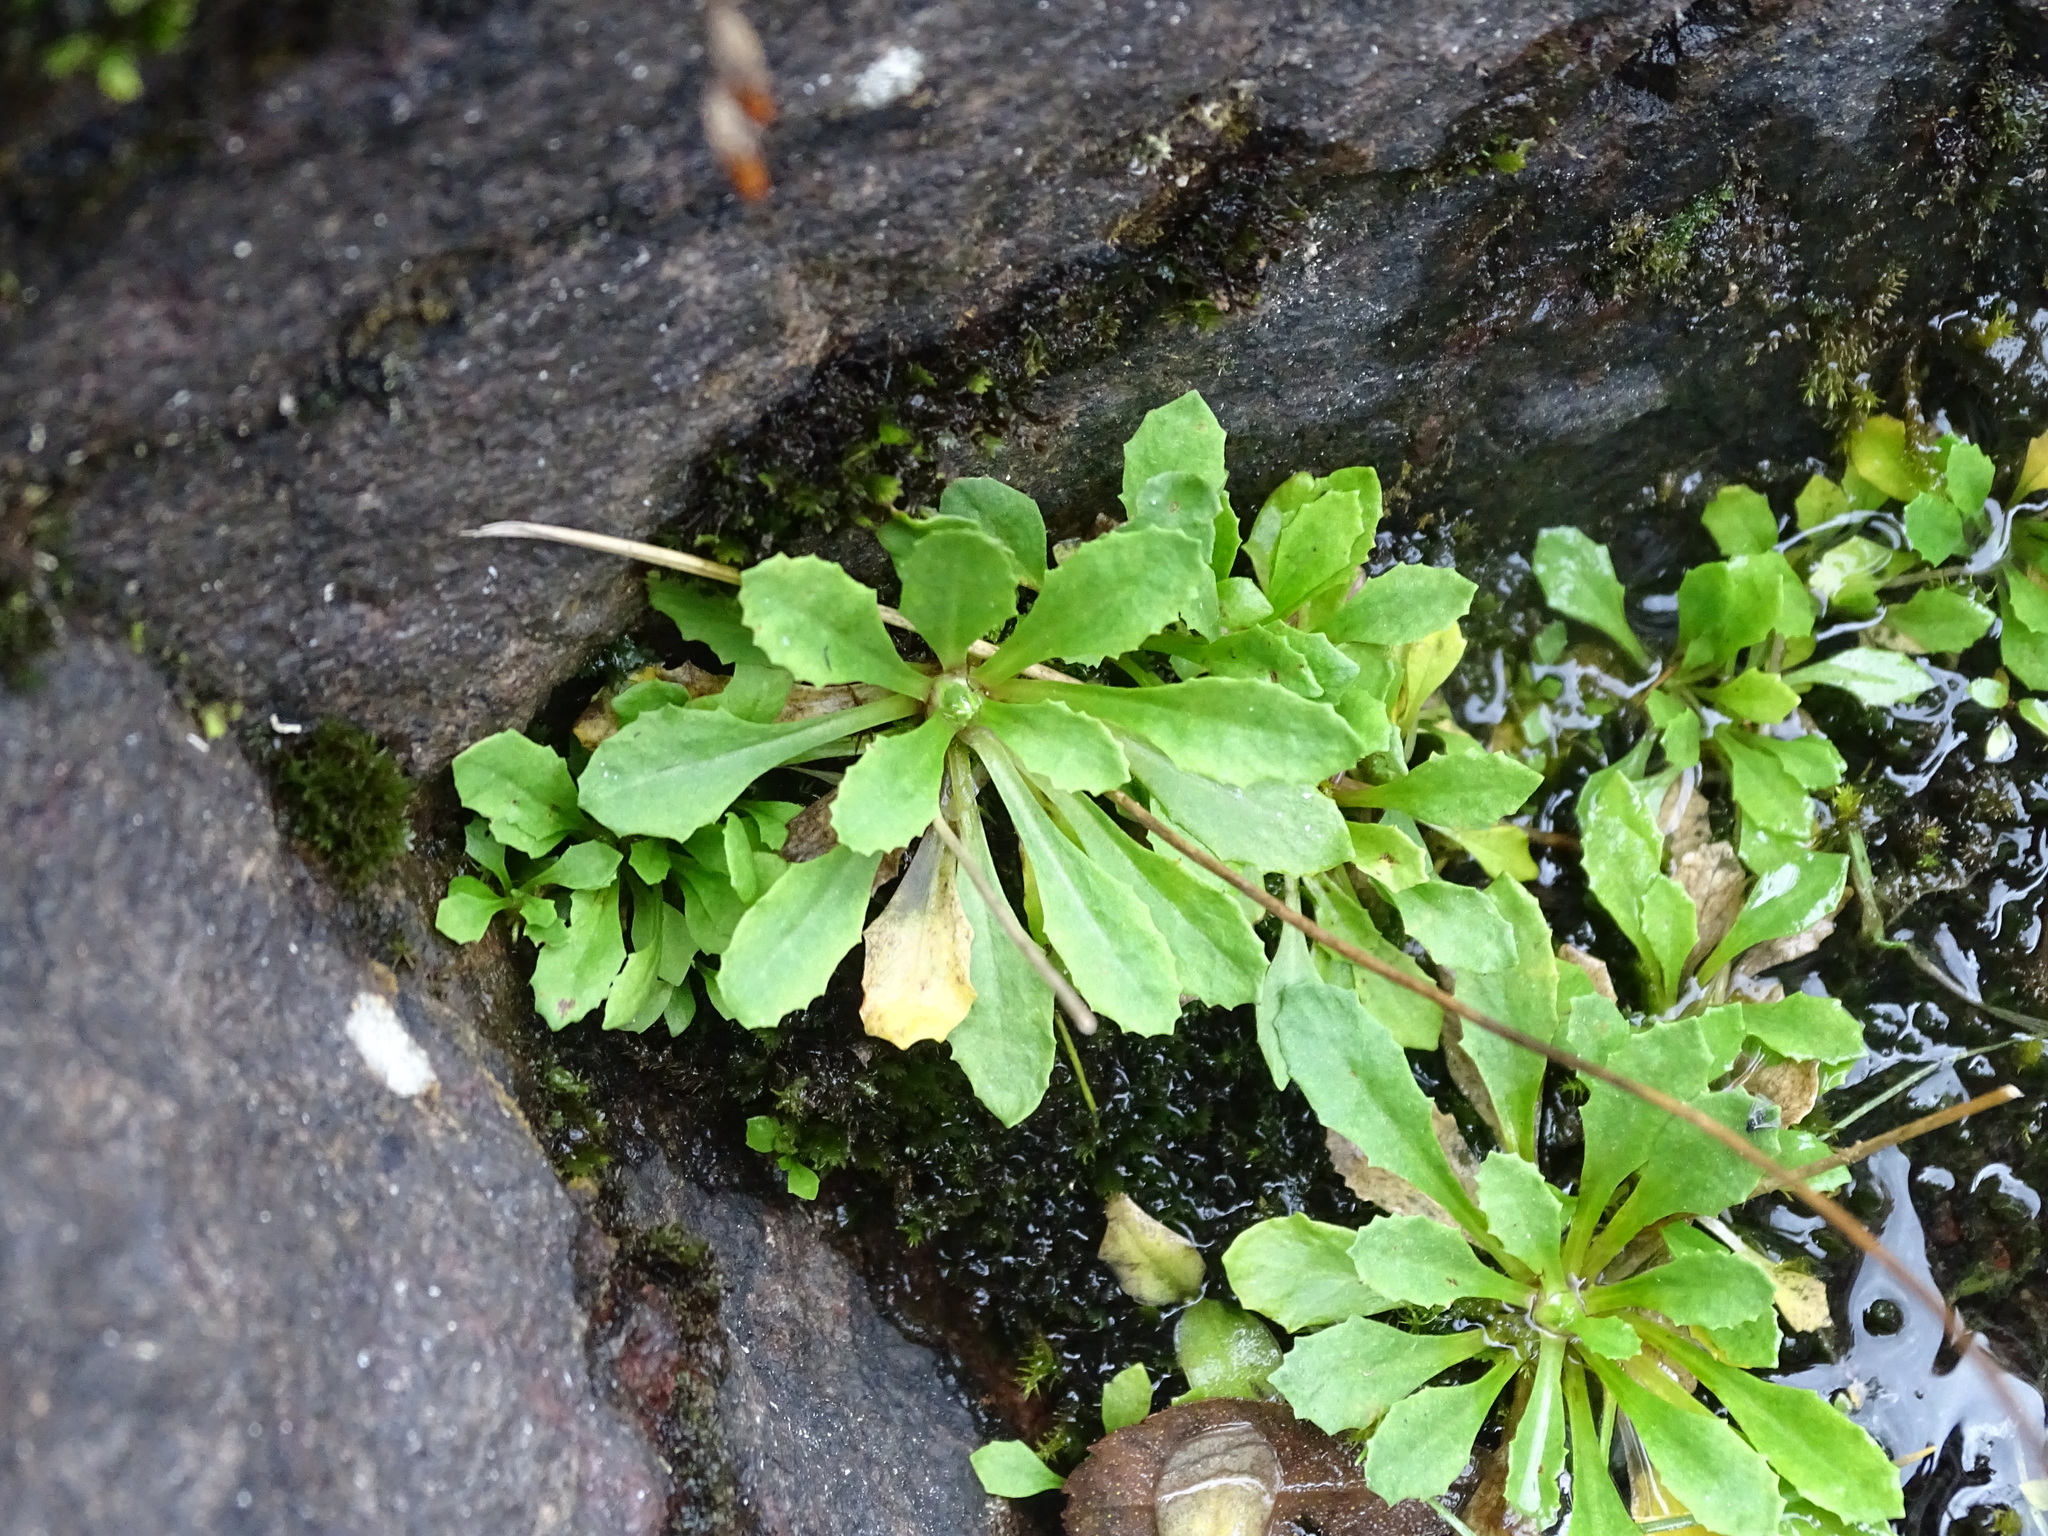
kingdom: Plantae
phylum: Tracheophyta
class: Magnoliopsida
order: Ericales
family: Primulaceae
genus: Primula
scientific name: Primula mistassinica
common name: Bird's-eye primrose
